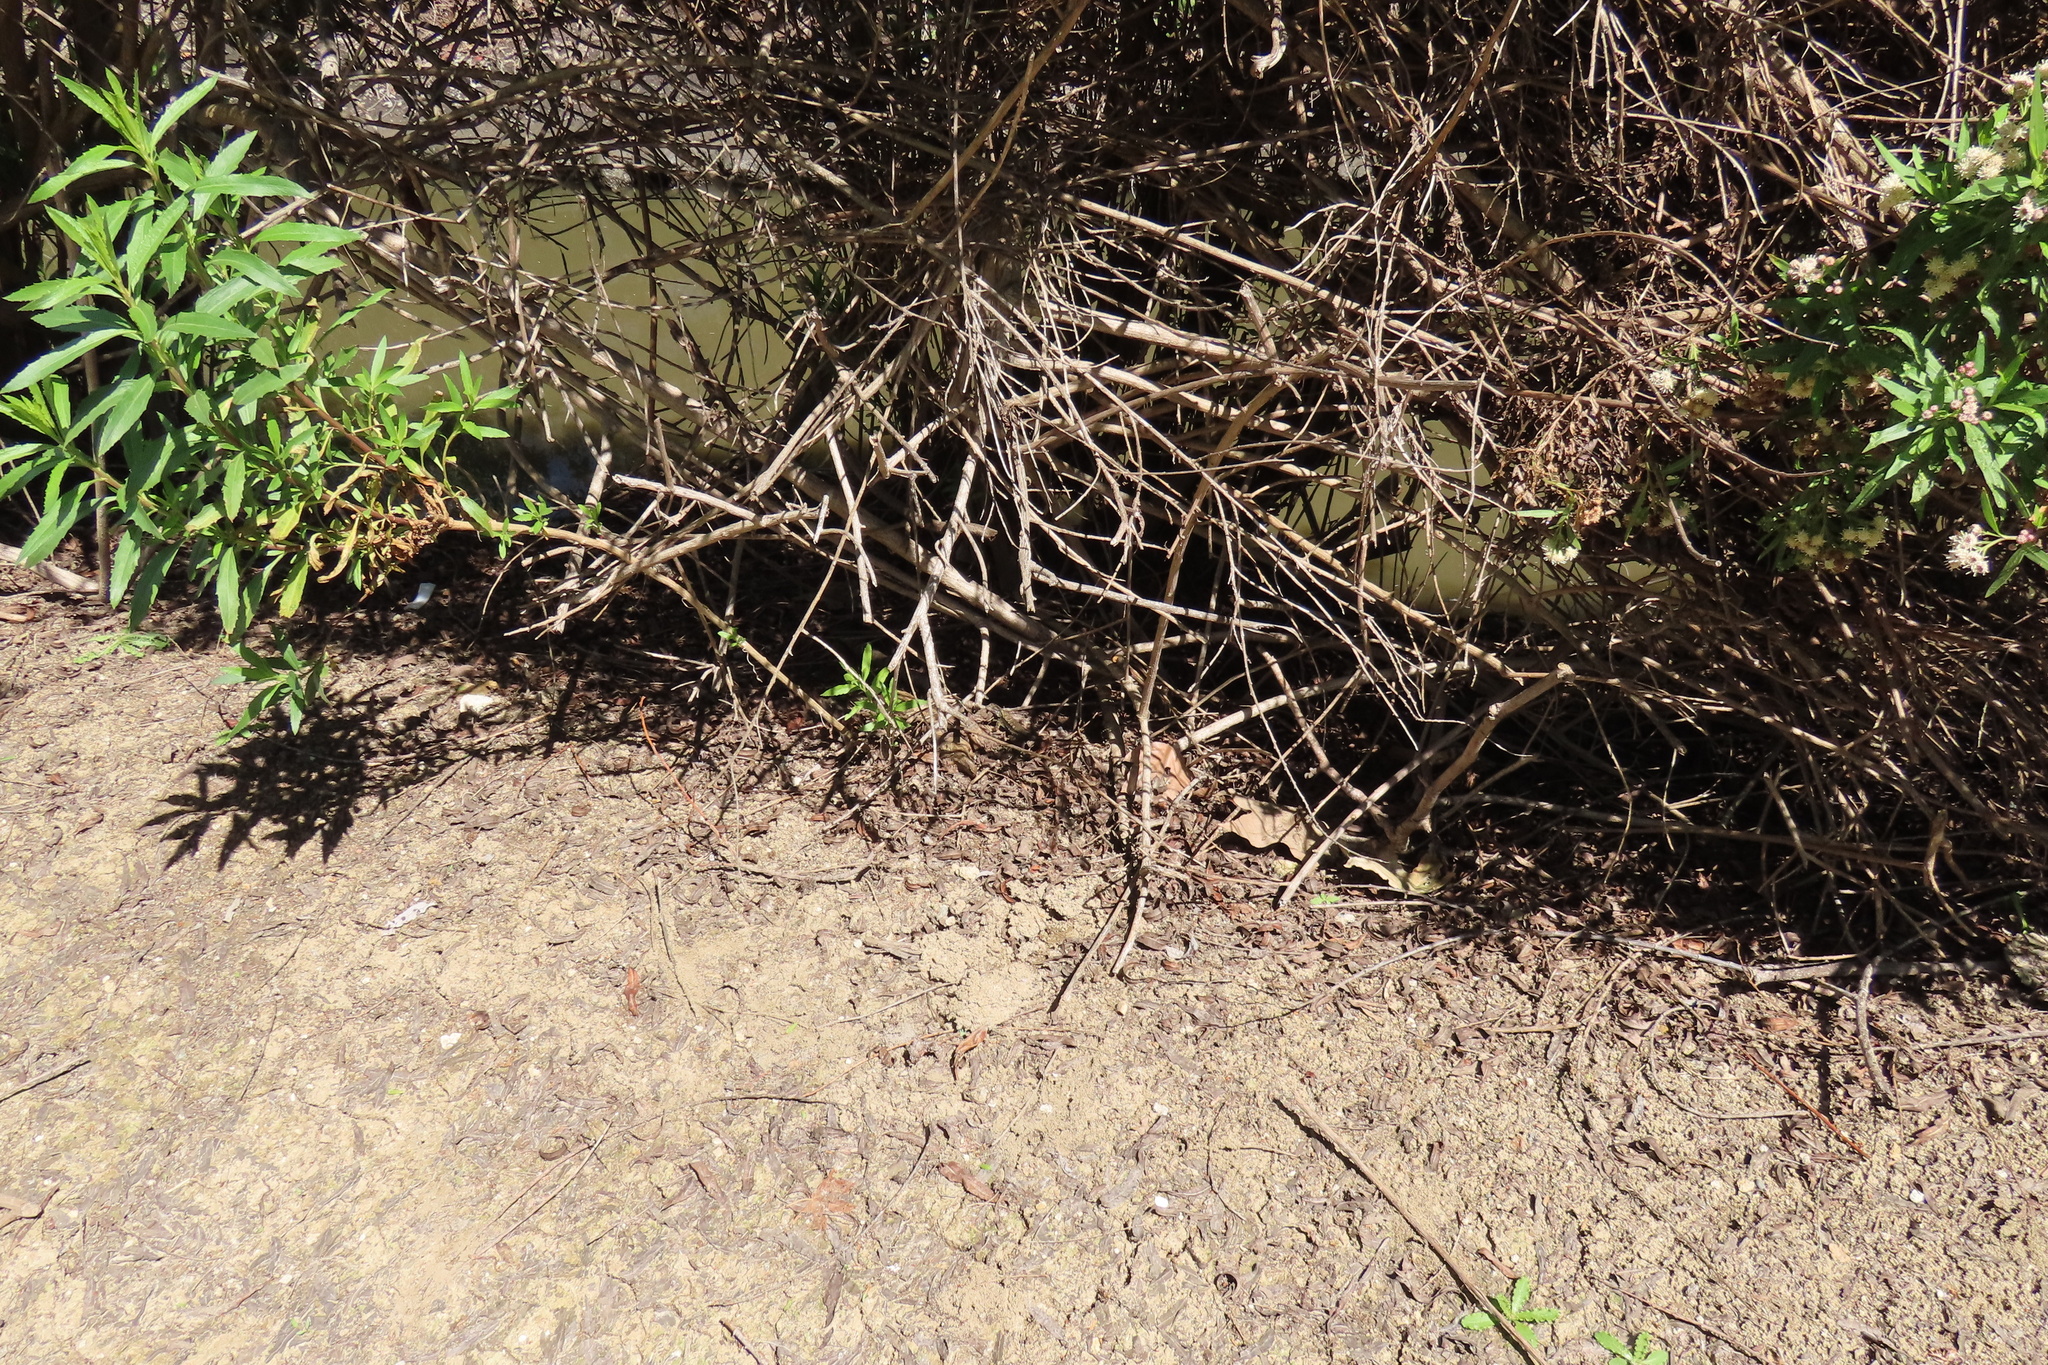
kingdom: Animalia
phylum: Chordata
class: Squamata
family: Phrynosomatidae
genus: Sceloporus
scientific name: Sceloporus occidentalis
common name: Western fence lizard
